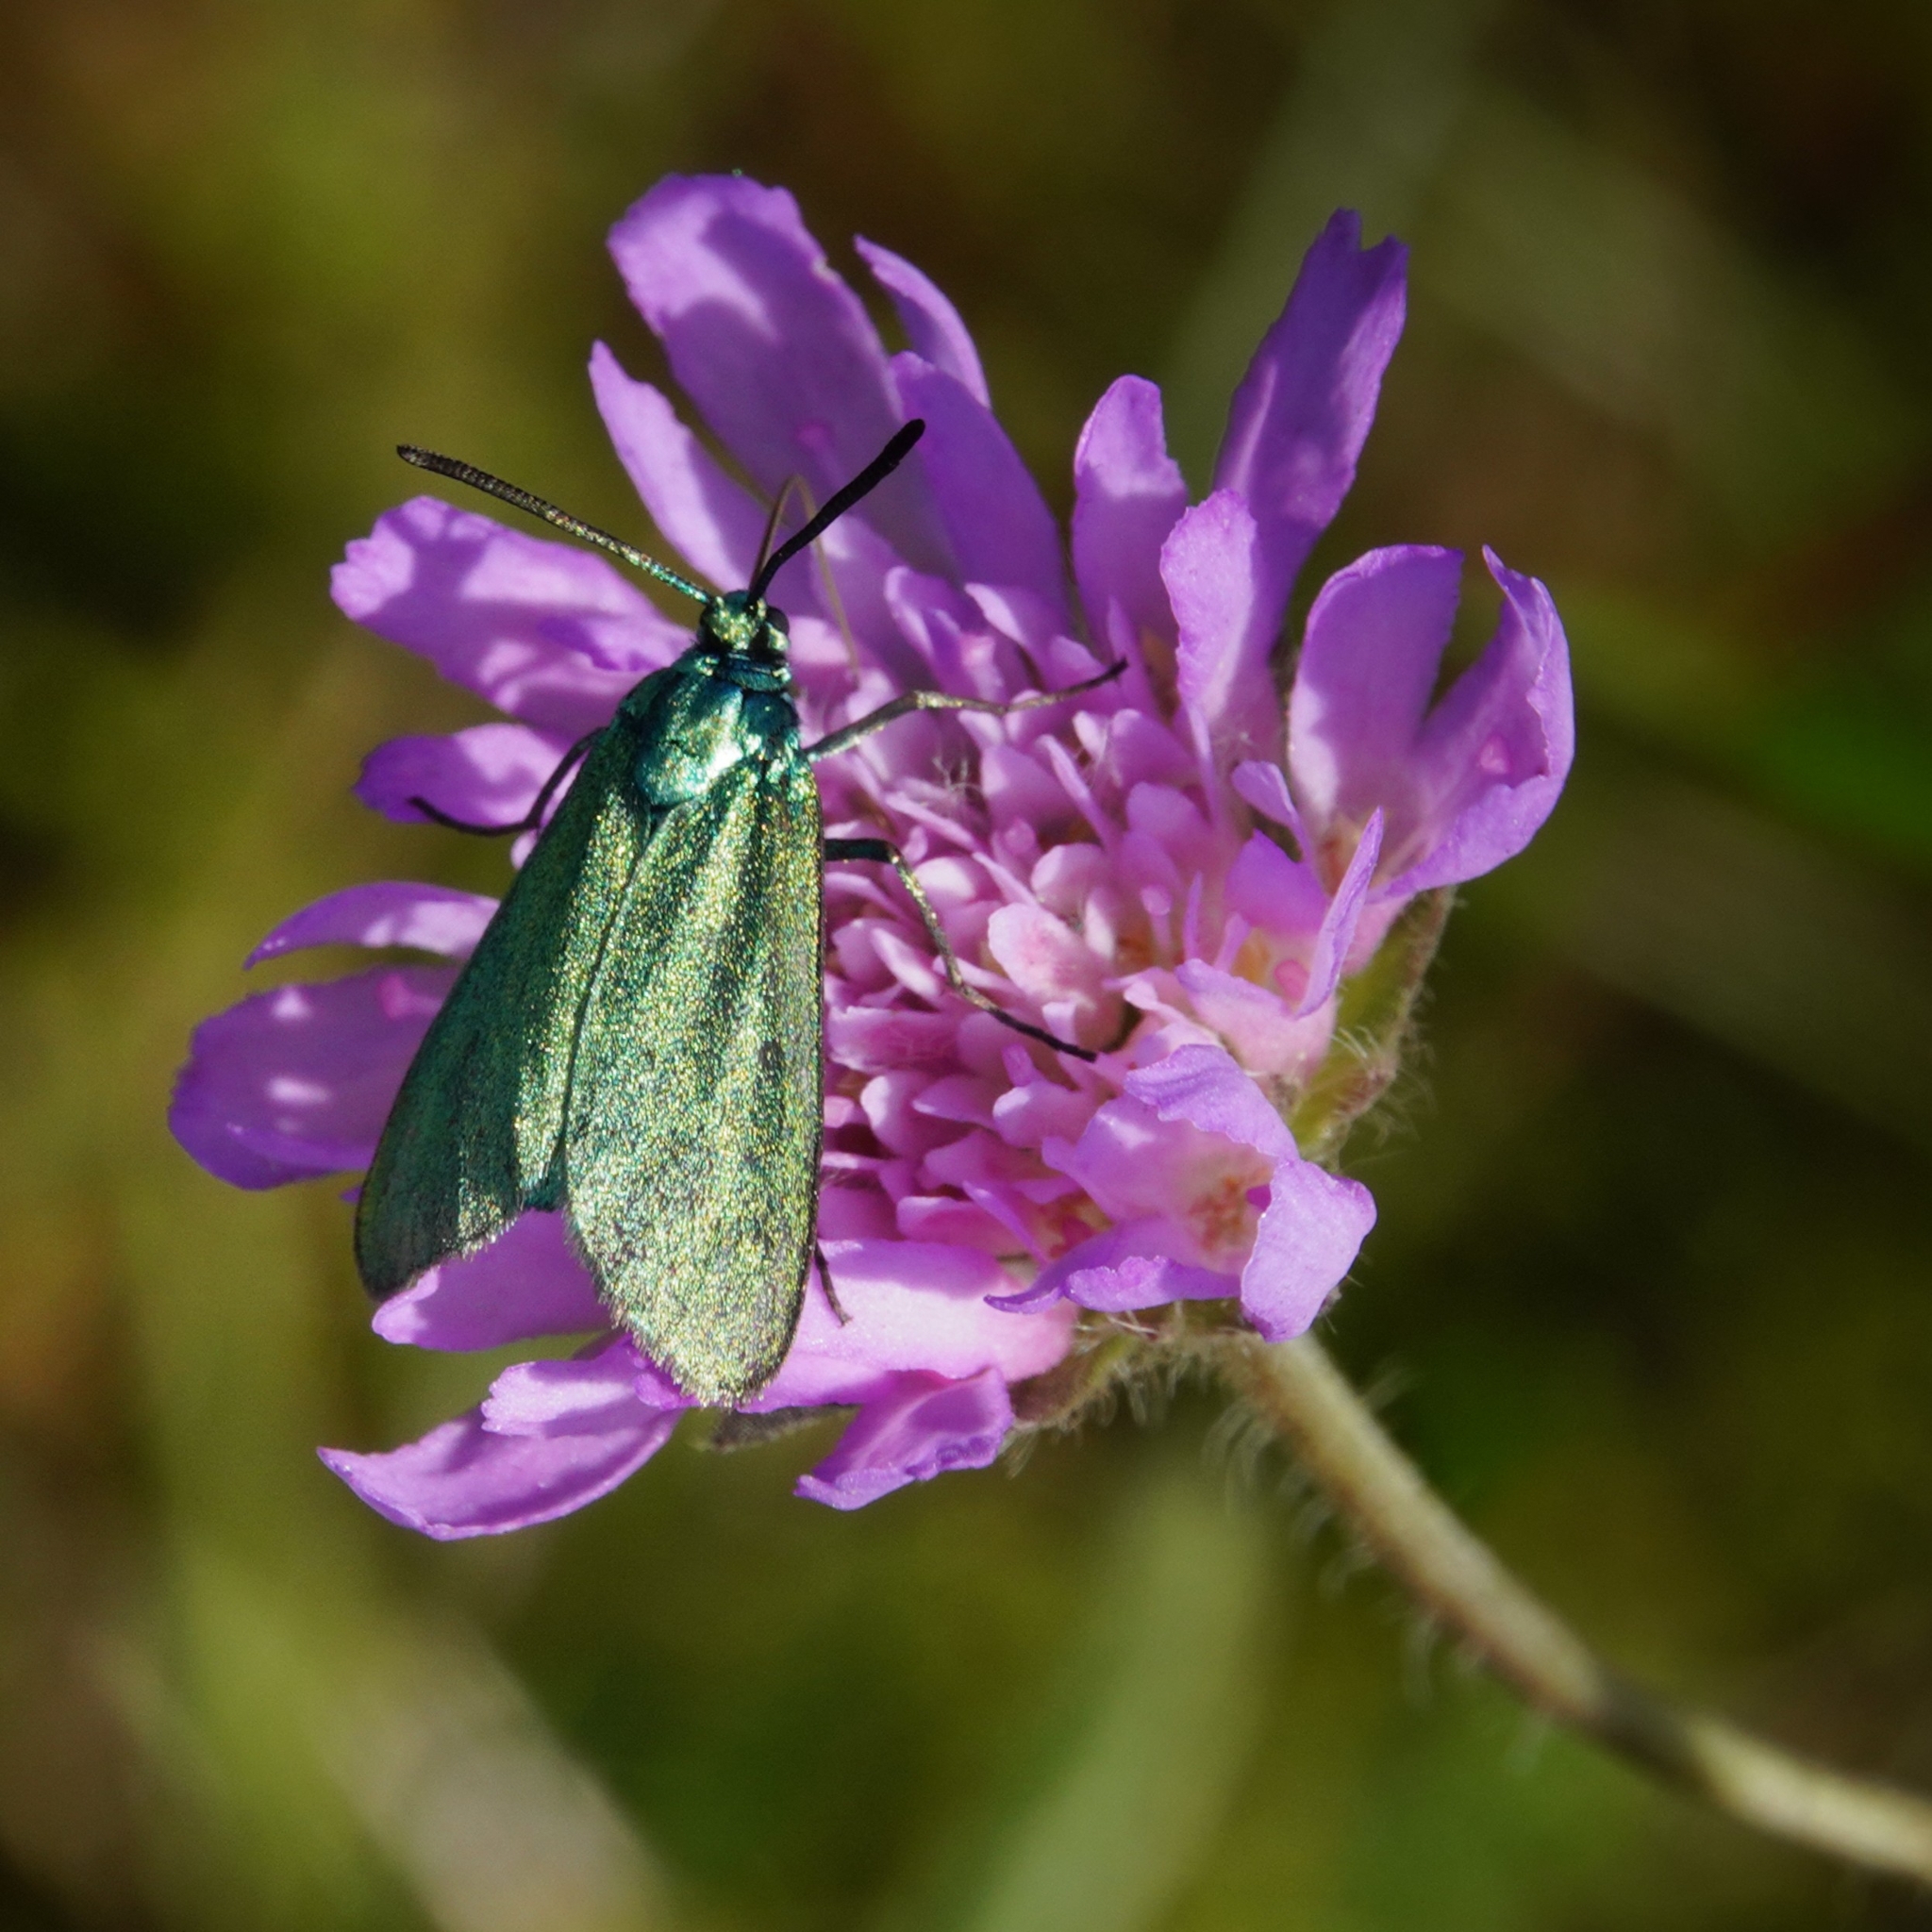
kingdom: Animalia
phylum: Arthropoda
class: Insecta
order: Lepidoptera
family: Zygaenidae
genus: Adscita
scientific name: Adscita statices
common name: Forester
